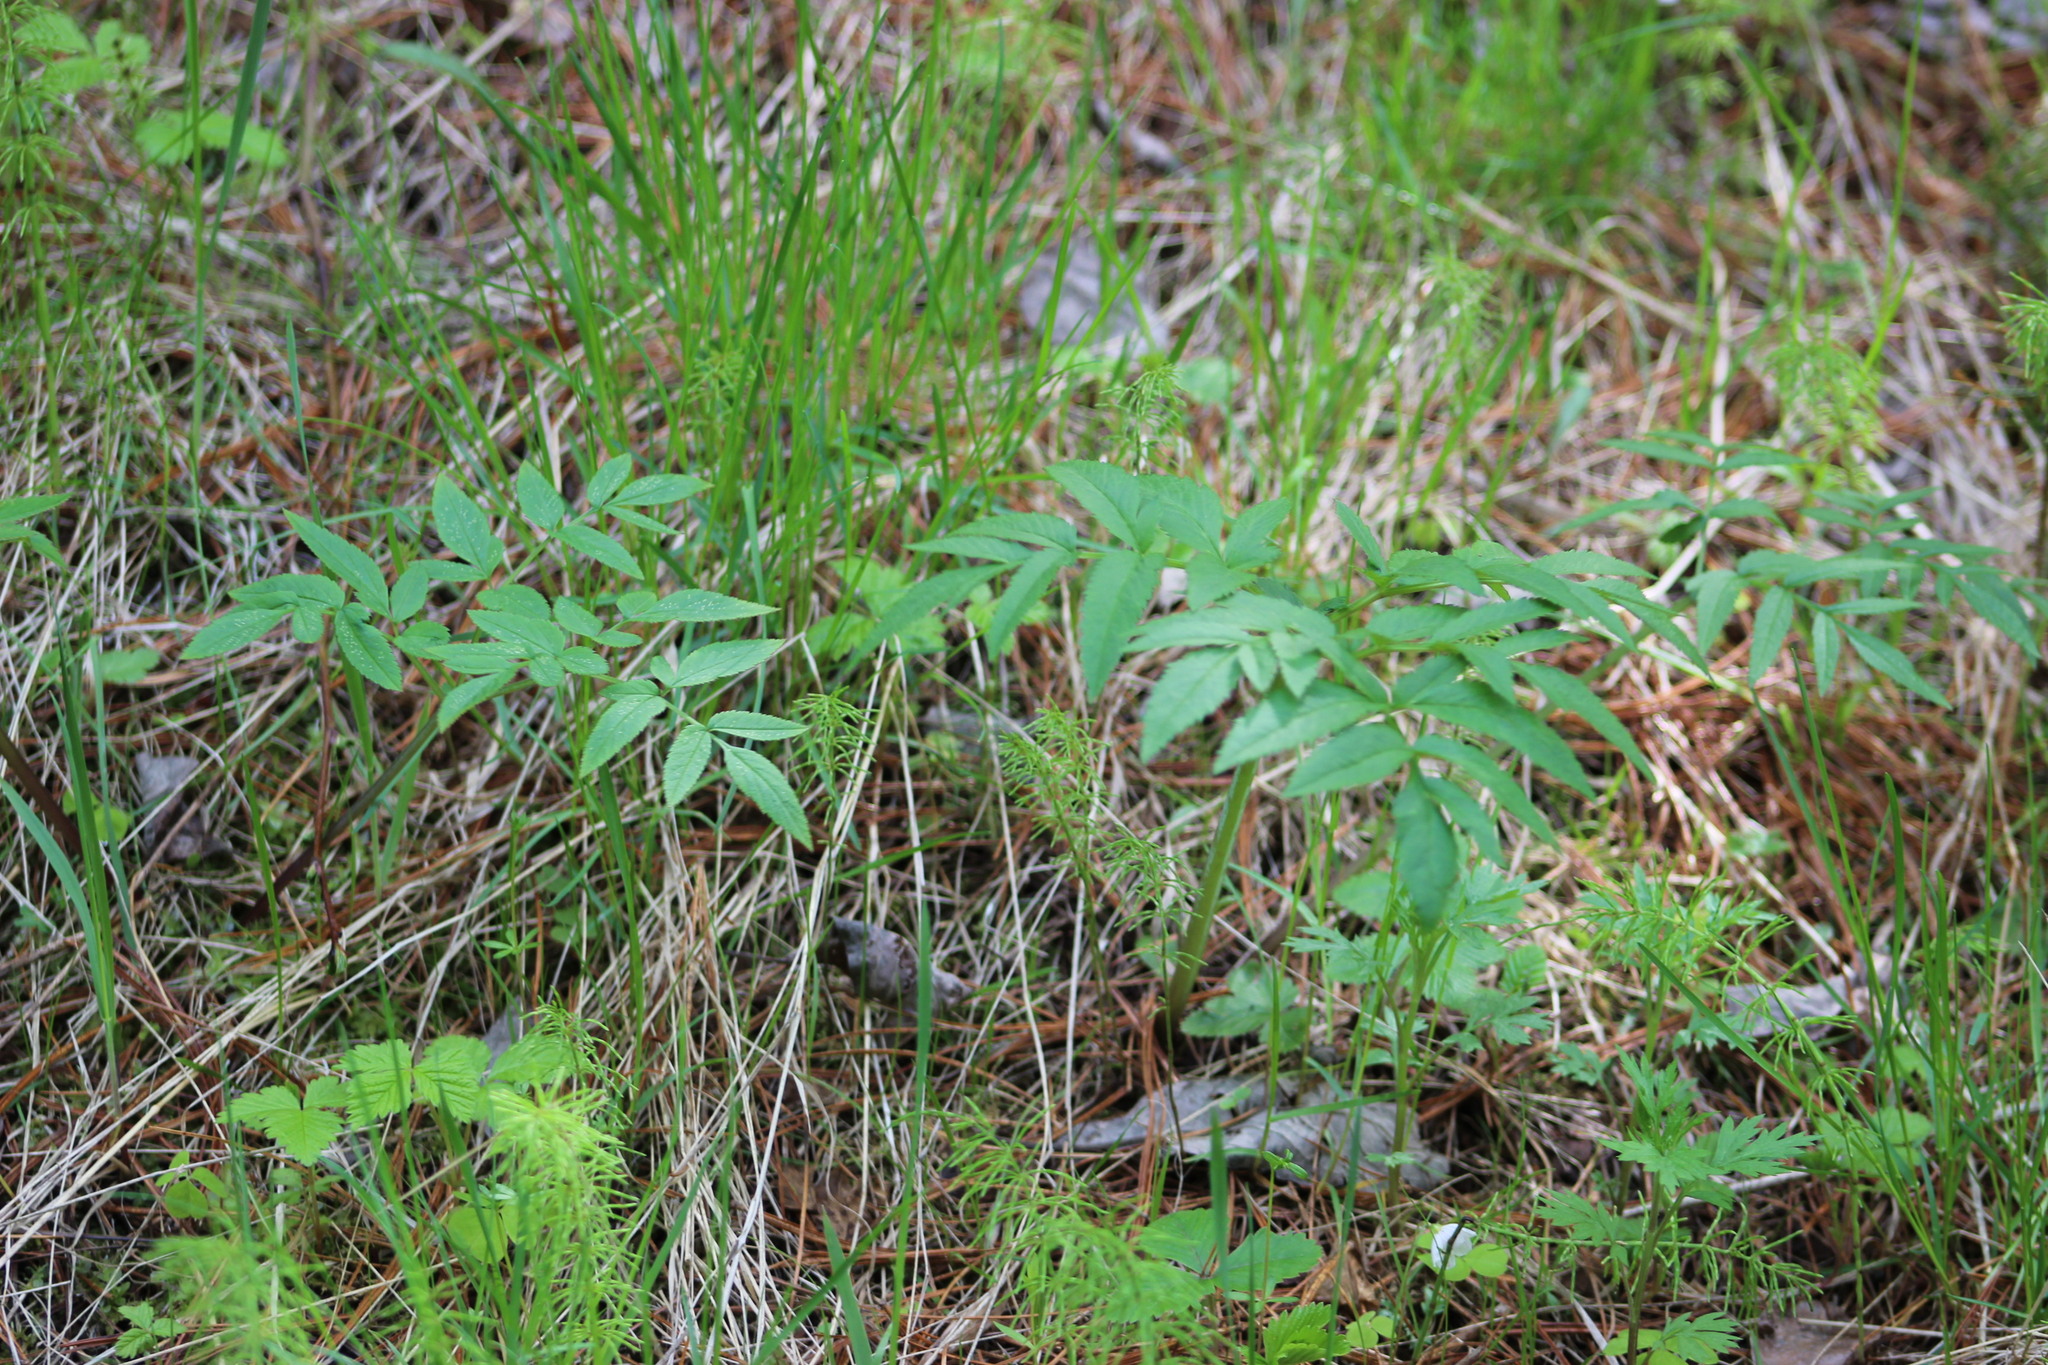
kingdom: Plantae
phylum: Tracheophyta
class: Magnoliopsida
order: Apiales
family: Apiaceae
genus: Angelica
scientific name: Angelica sylvestris
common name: Wild angelica
